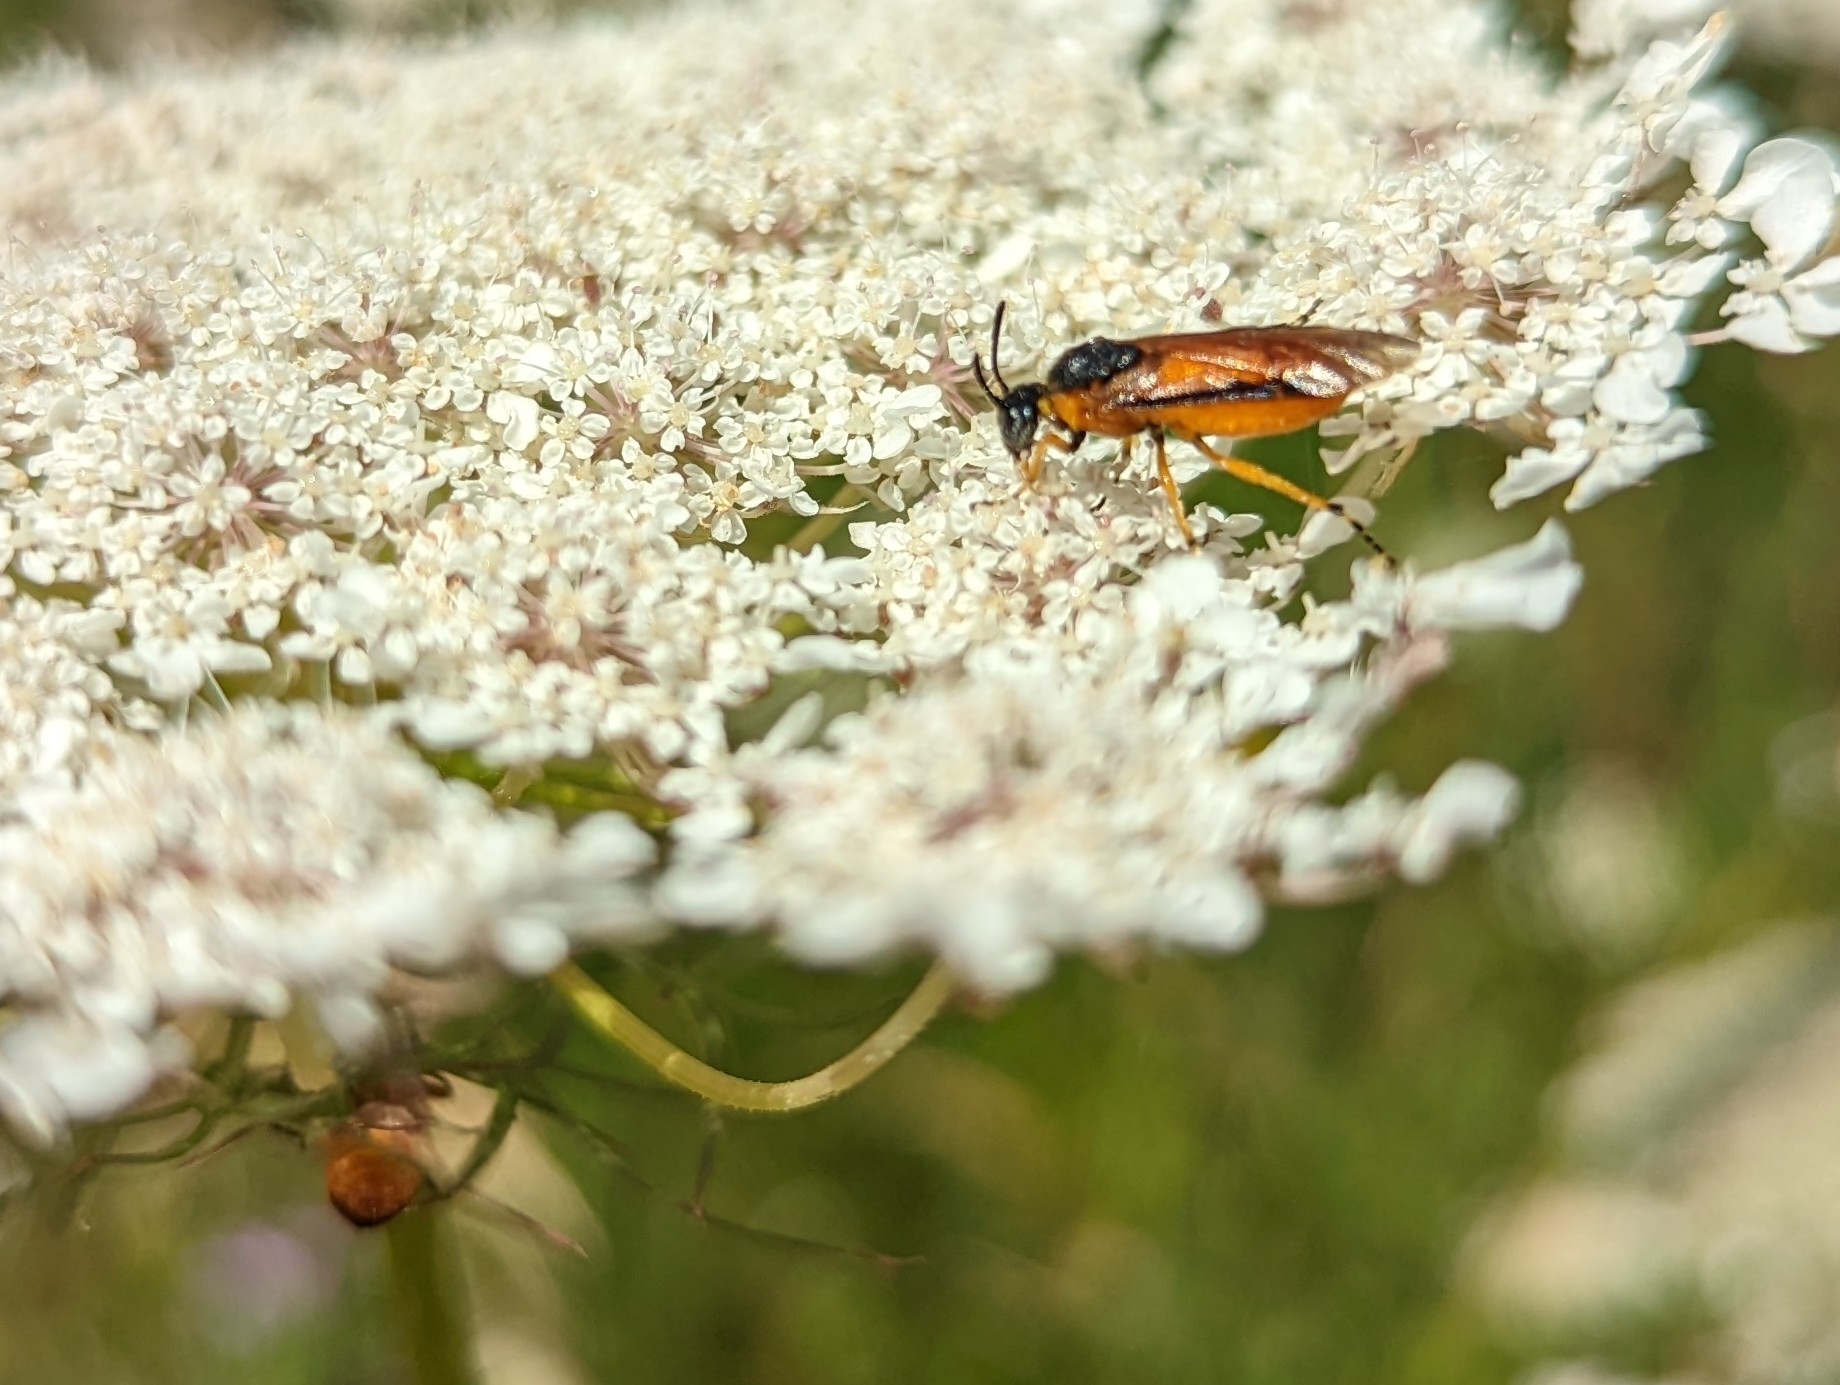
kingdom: Animalia
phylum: Arthropoda
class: Insecta
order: Hymenoptera
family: Argidae
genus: Arge
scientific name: Arge ochropus
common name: Argid sawfly
